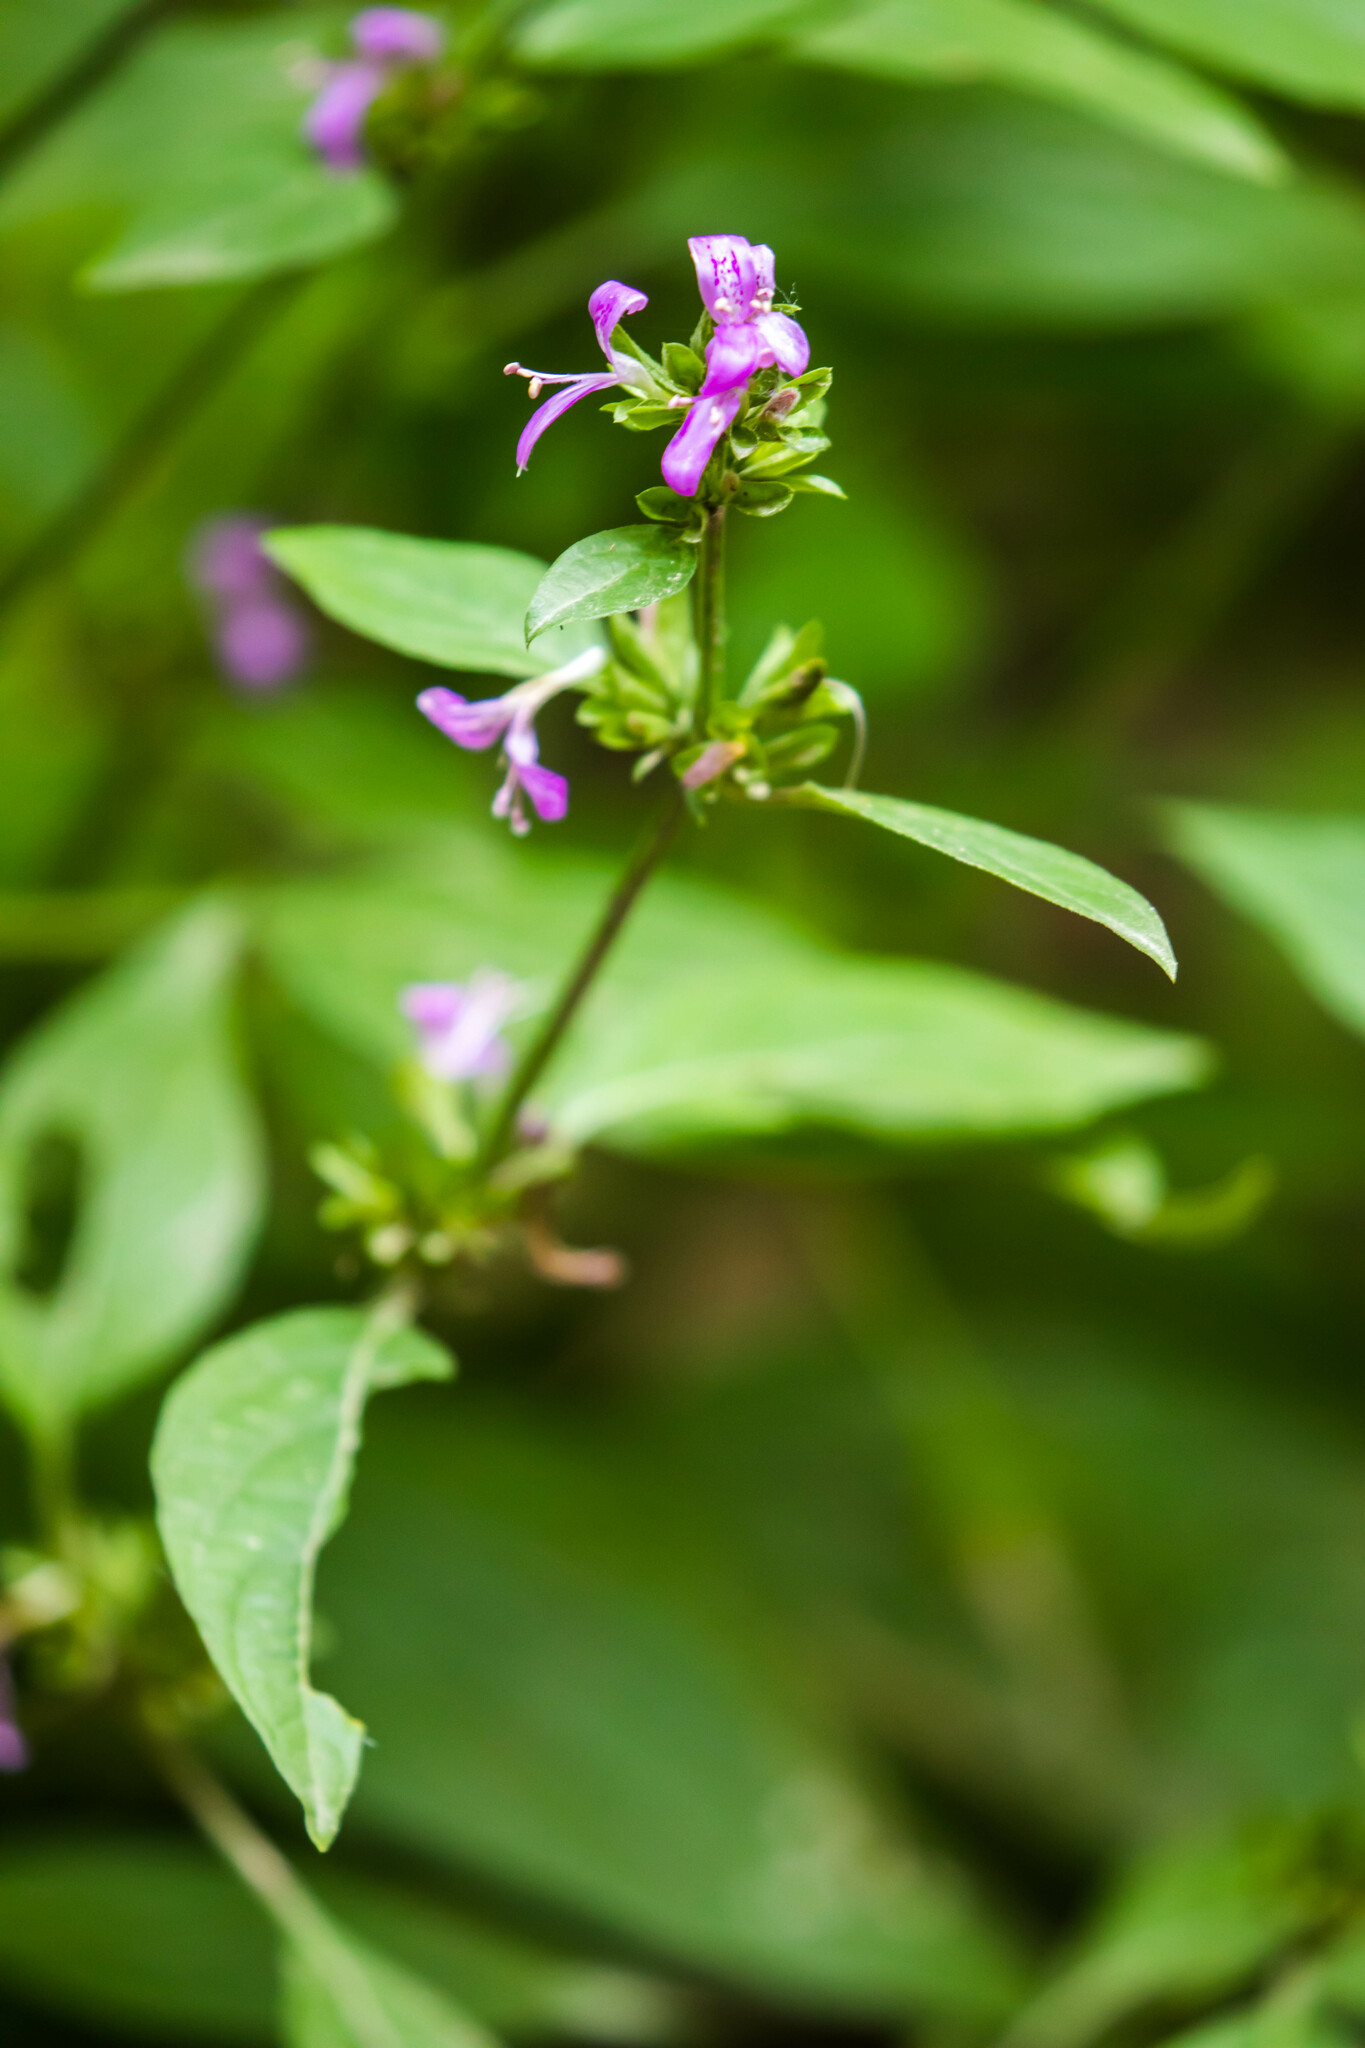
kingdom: Plantae
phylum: Tracheophyta
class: Magnoliopsida
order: Lamiales
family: Acanthaceae
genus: Dicliptera
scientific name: Dicliptera brachiata
